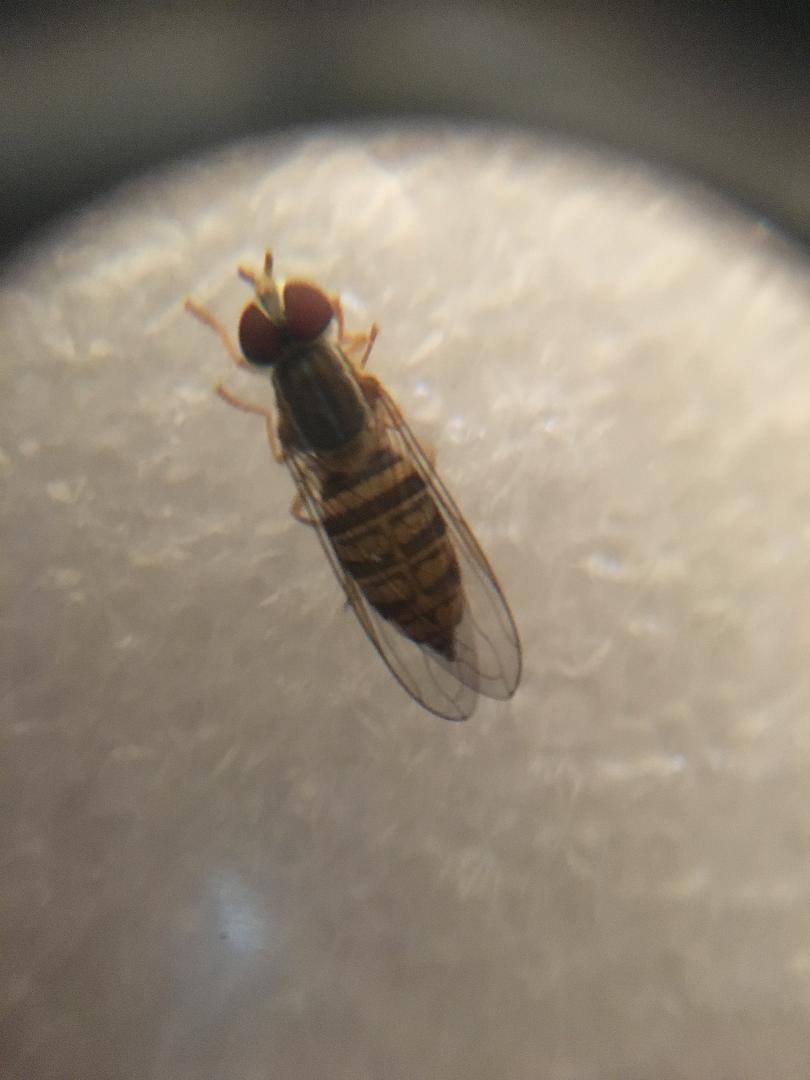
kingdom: Animalia
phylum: Arthropoda
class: Insecta
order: Diptera
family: Syrphidae
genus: Toxomerus
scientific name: Toxomerus politus
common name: Maize calligrapher
